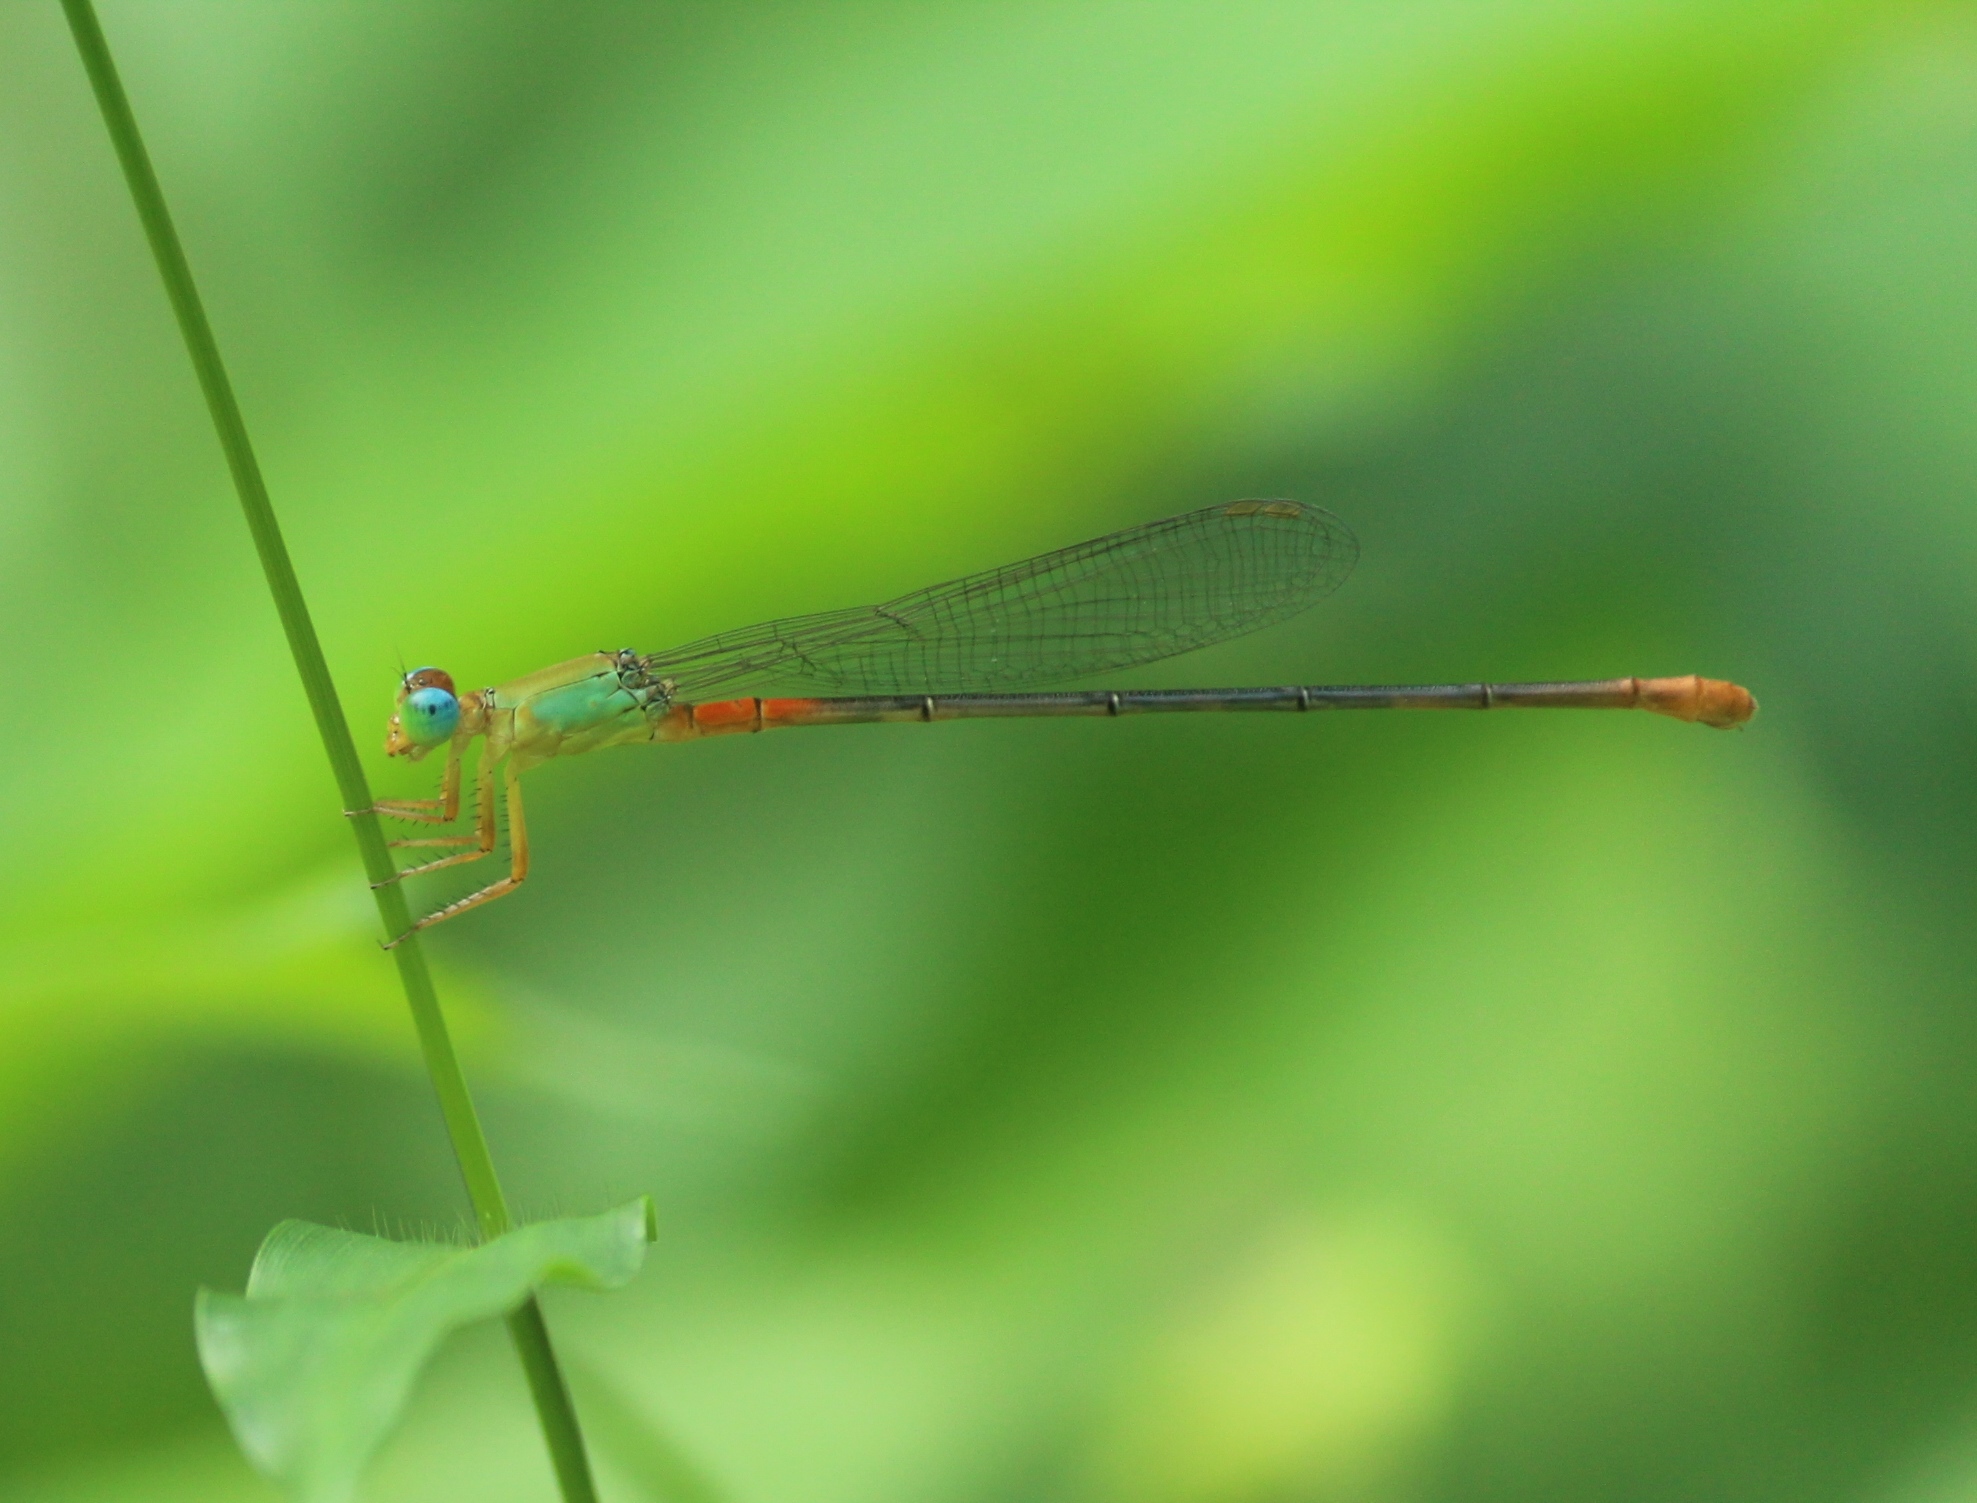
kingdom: Animalia
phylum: Arthropoda
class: Insecta
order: Odonata
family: Coenagrionidae
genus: Ceriagrion
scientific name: Ceriagrion cerinorubellum
